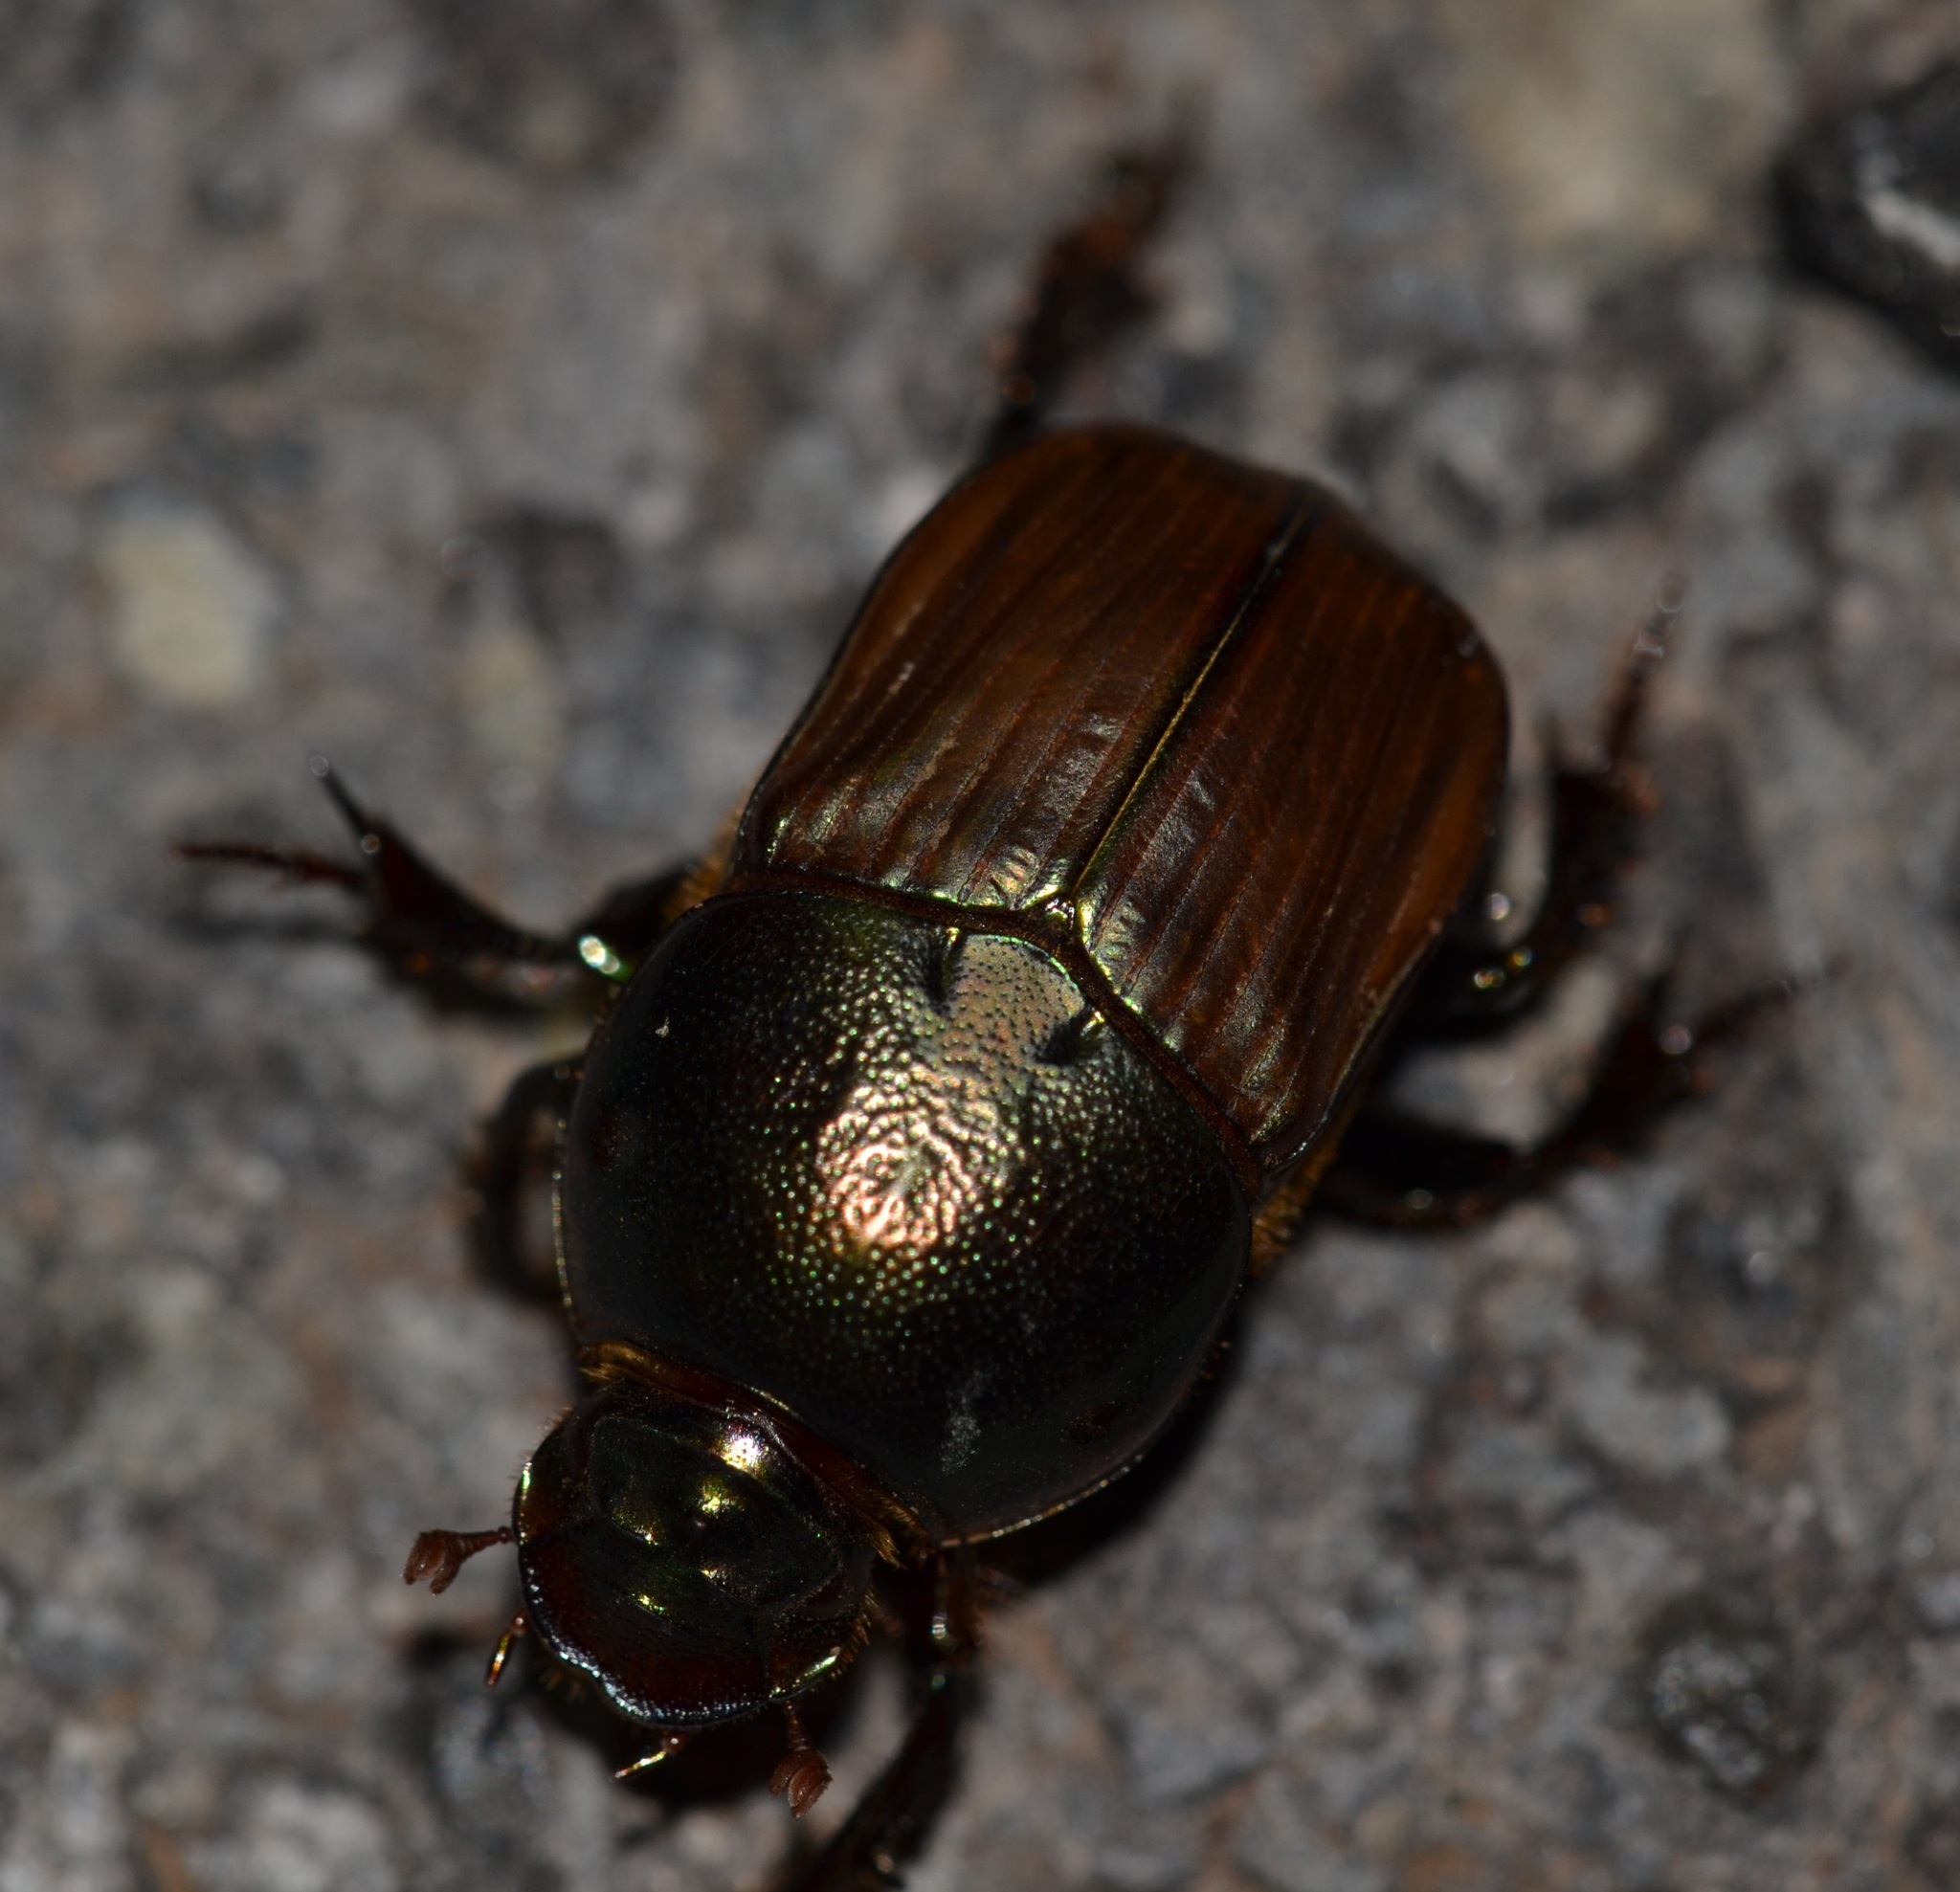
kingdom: Animalia
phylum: Arthropoda
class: Insecta
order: Coleoptera
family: Scarabaeidae
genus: Onitis
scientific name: Onitis alexis
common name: Alexis dung beetle
